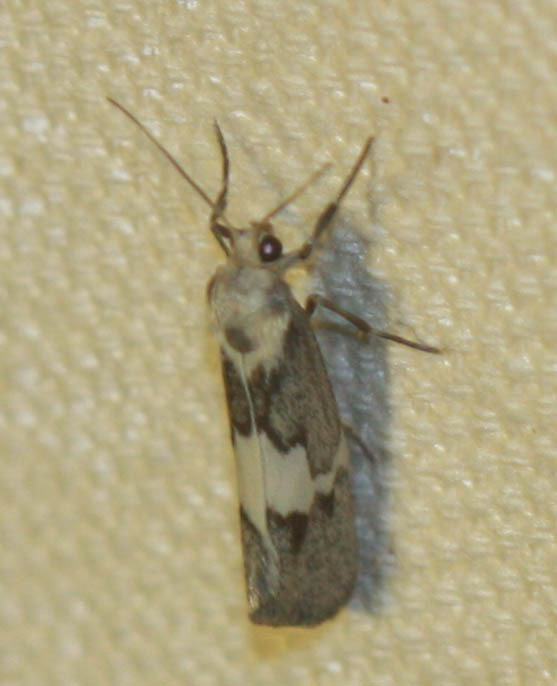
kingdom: Animalia
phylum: Arthropoda
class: Insecta
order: Lepidoptera
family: Erebidae
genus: Cisthene
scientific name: Cisthene deserta
